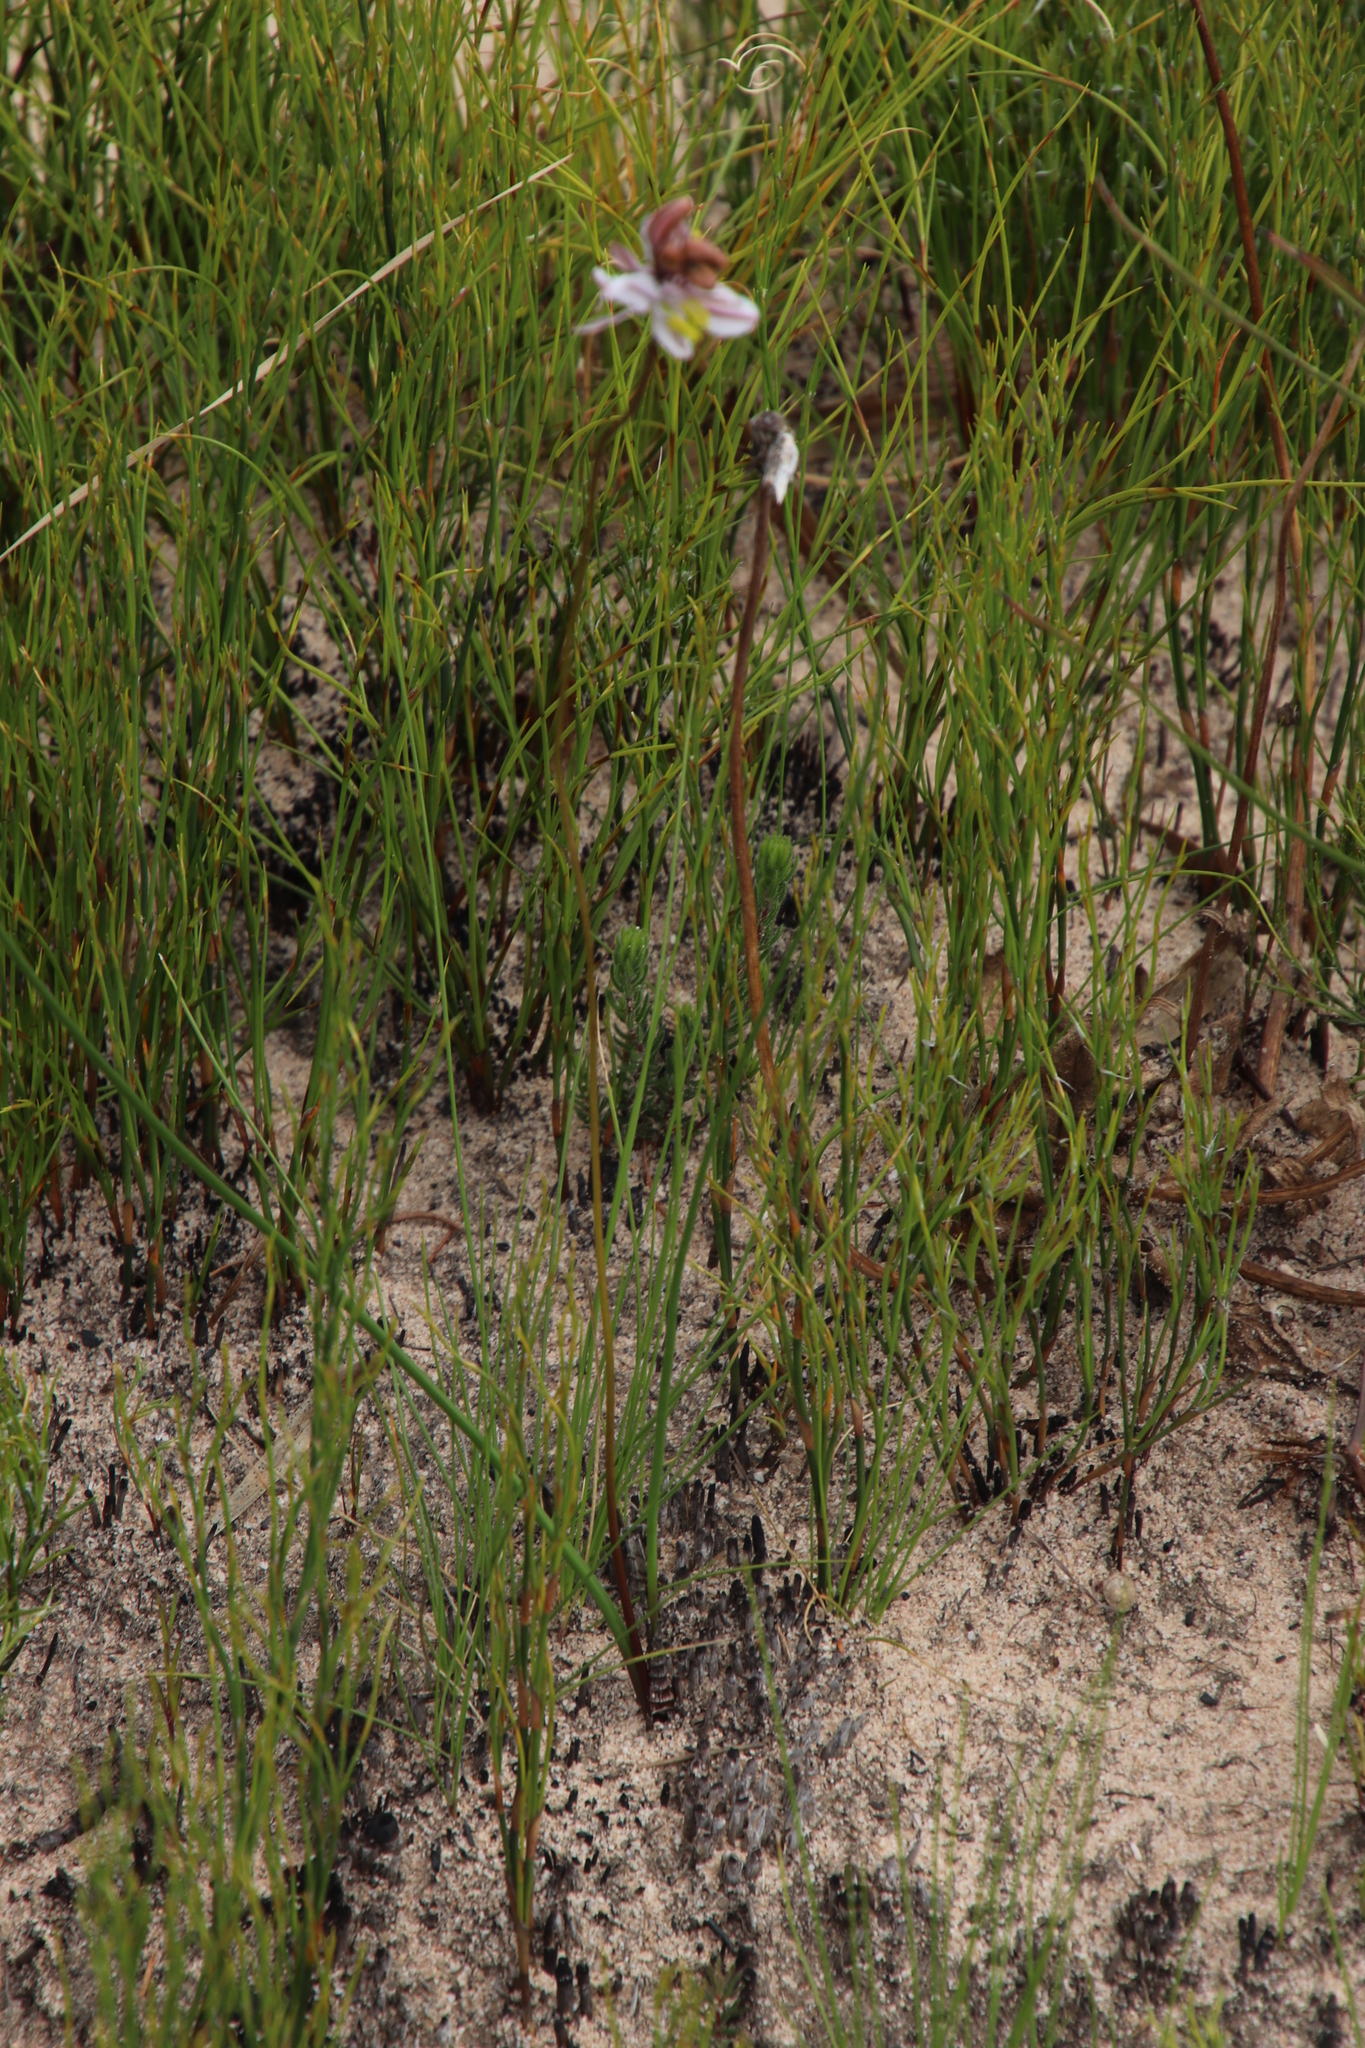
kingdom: Plantae
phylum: Tracheophyta
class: Liliopsida
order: Asparagales
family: Asparagaceae
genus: Drimia
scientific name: Drimia exuviata
